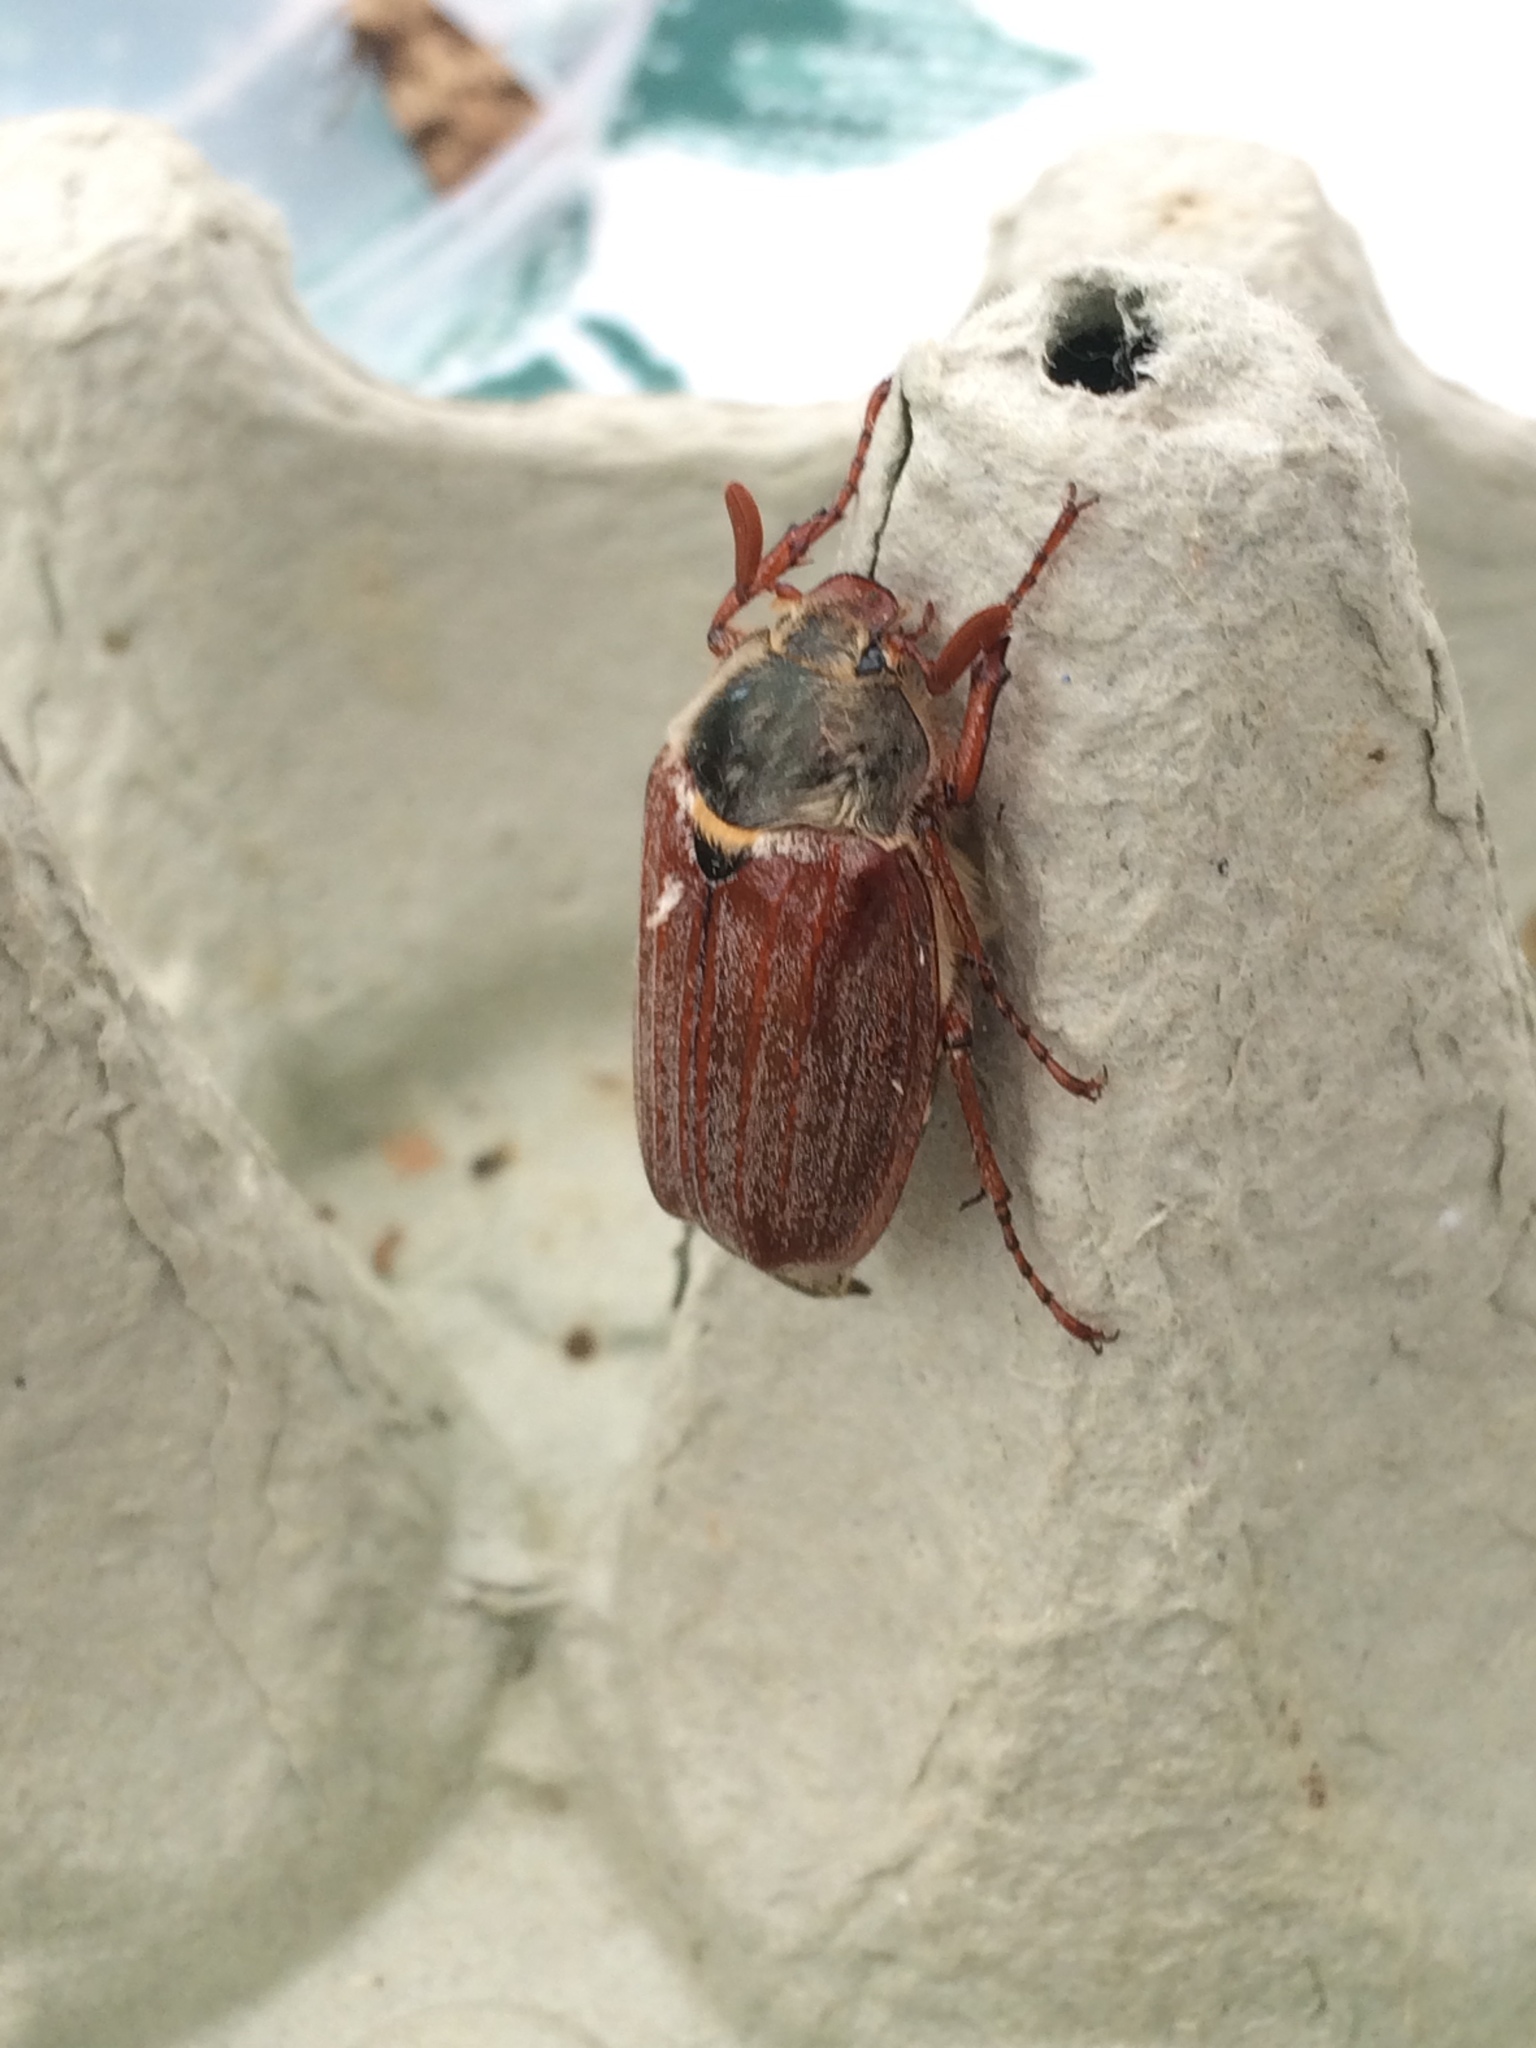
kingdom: Animalia
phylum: Arthropoda
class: Insecta
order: Coleoptera
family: Scarabaeidae
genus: Melolontha
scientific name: Melolontha melolontha
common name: Cockchafer maybeetle
